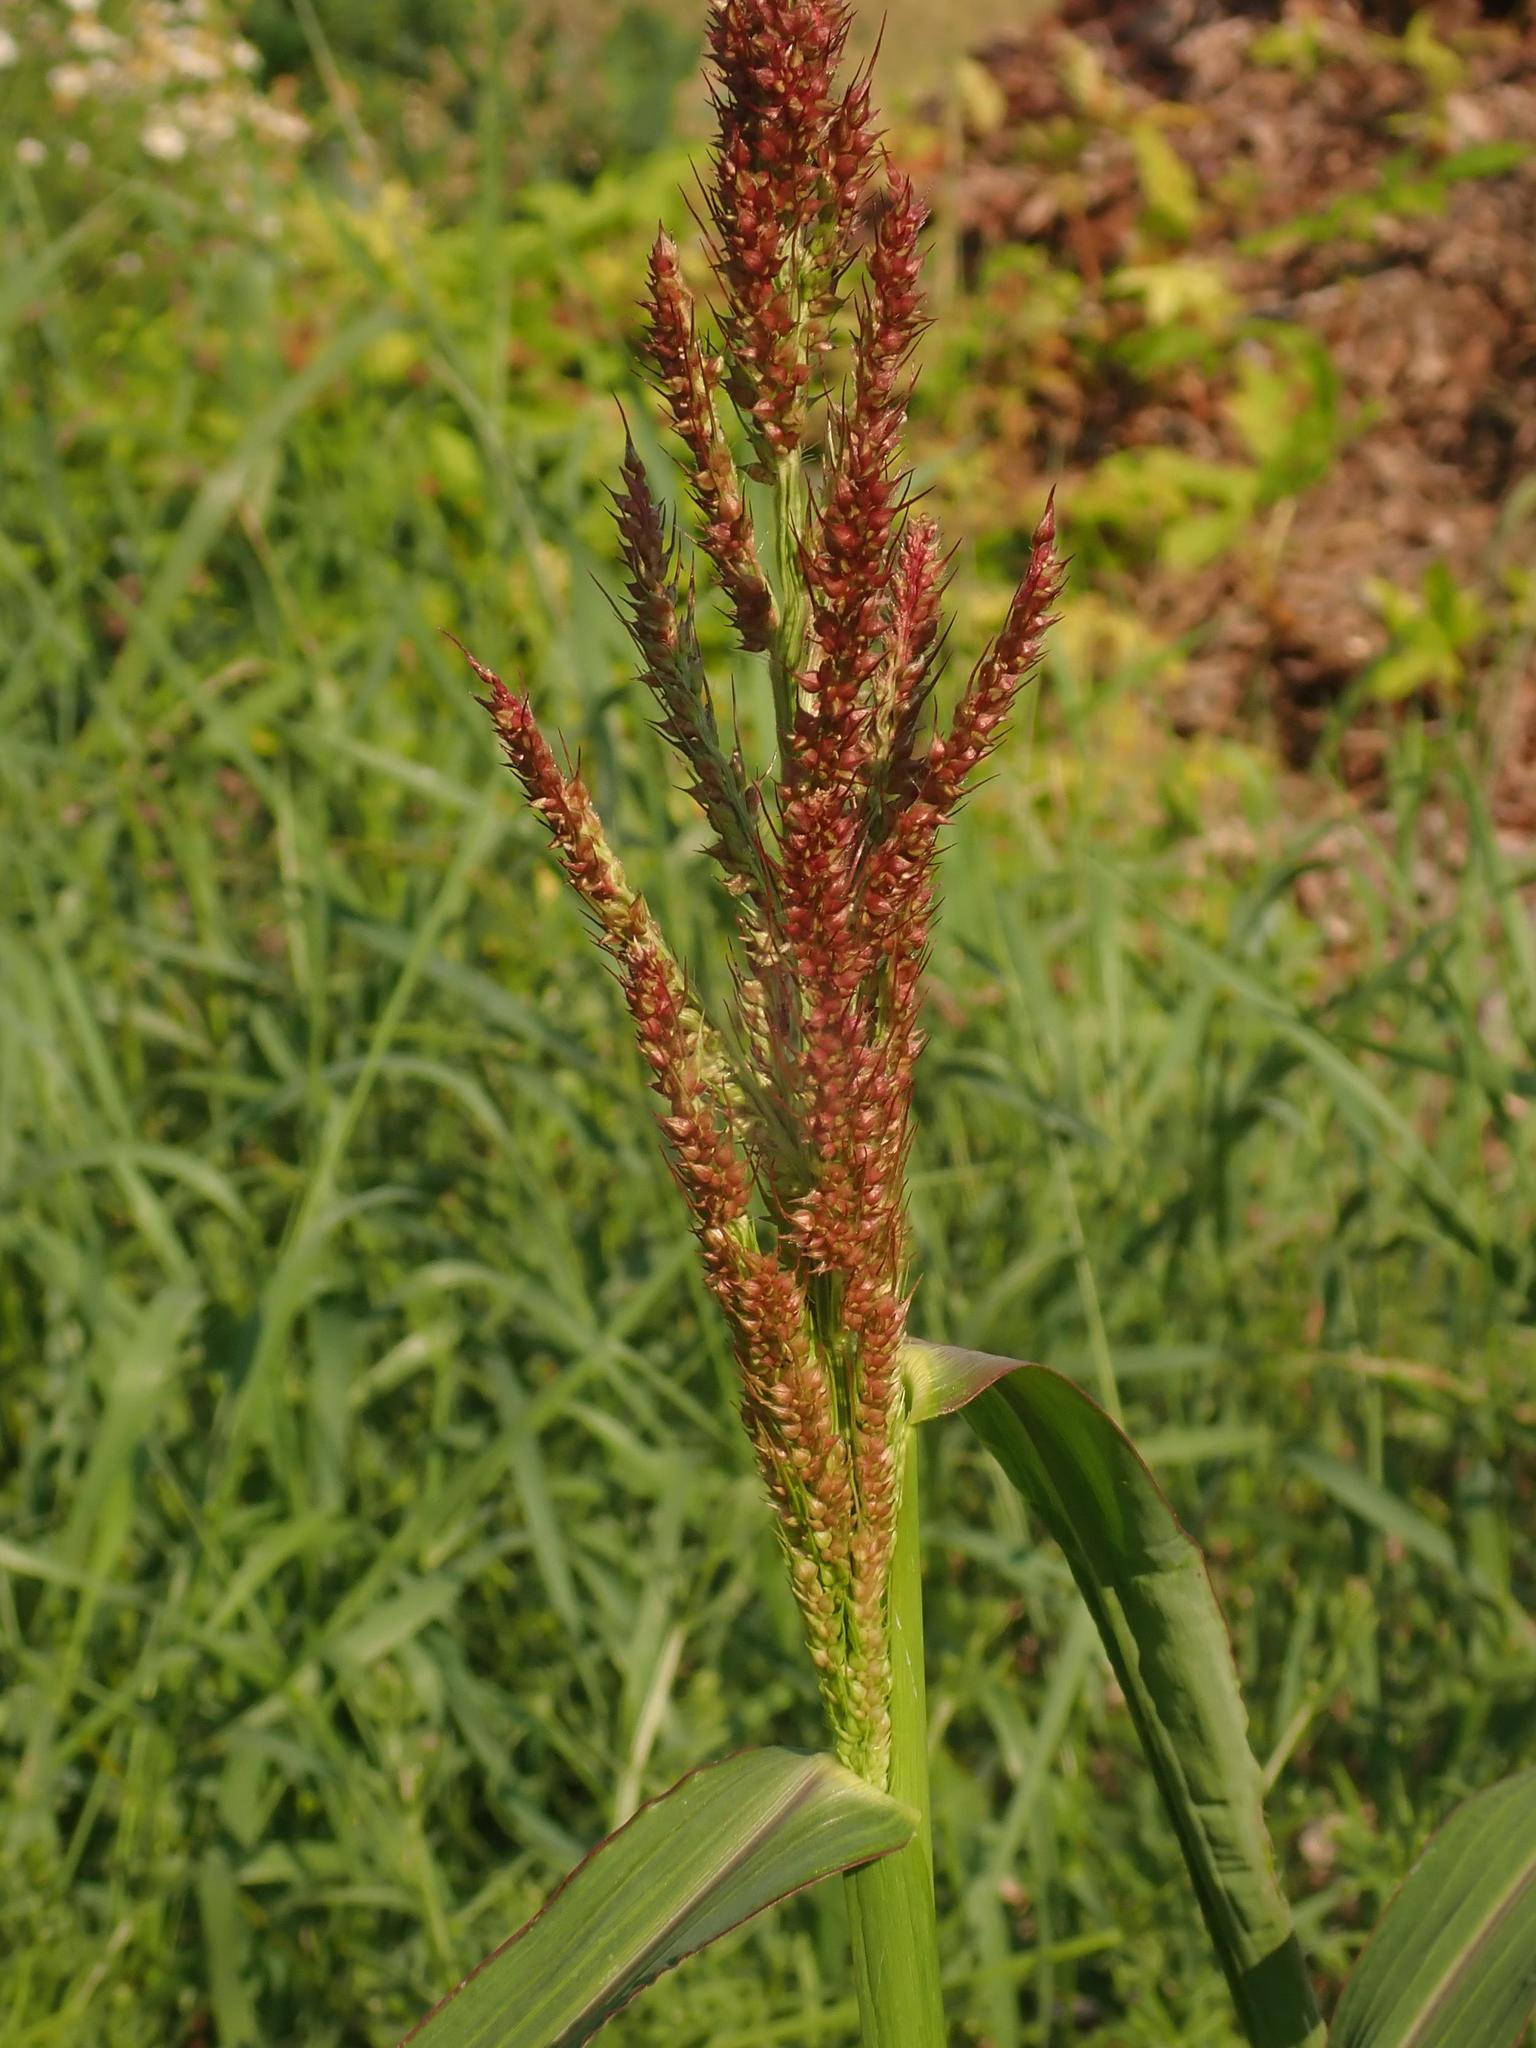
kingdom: Plantae
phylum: Tracheophyta
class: Liliopsida
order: Poales
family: Poaceae
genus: Echinochloa
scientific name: Echinochloa crus-galli
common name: Cockspur
